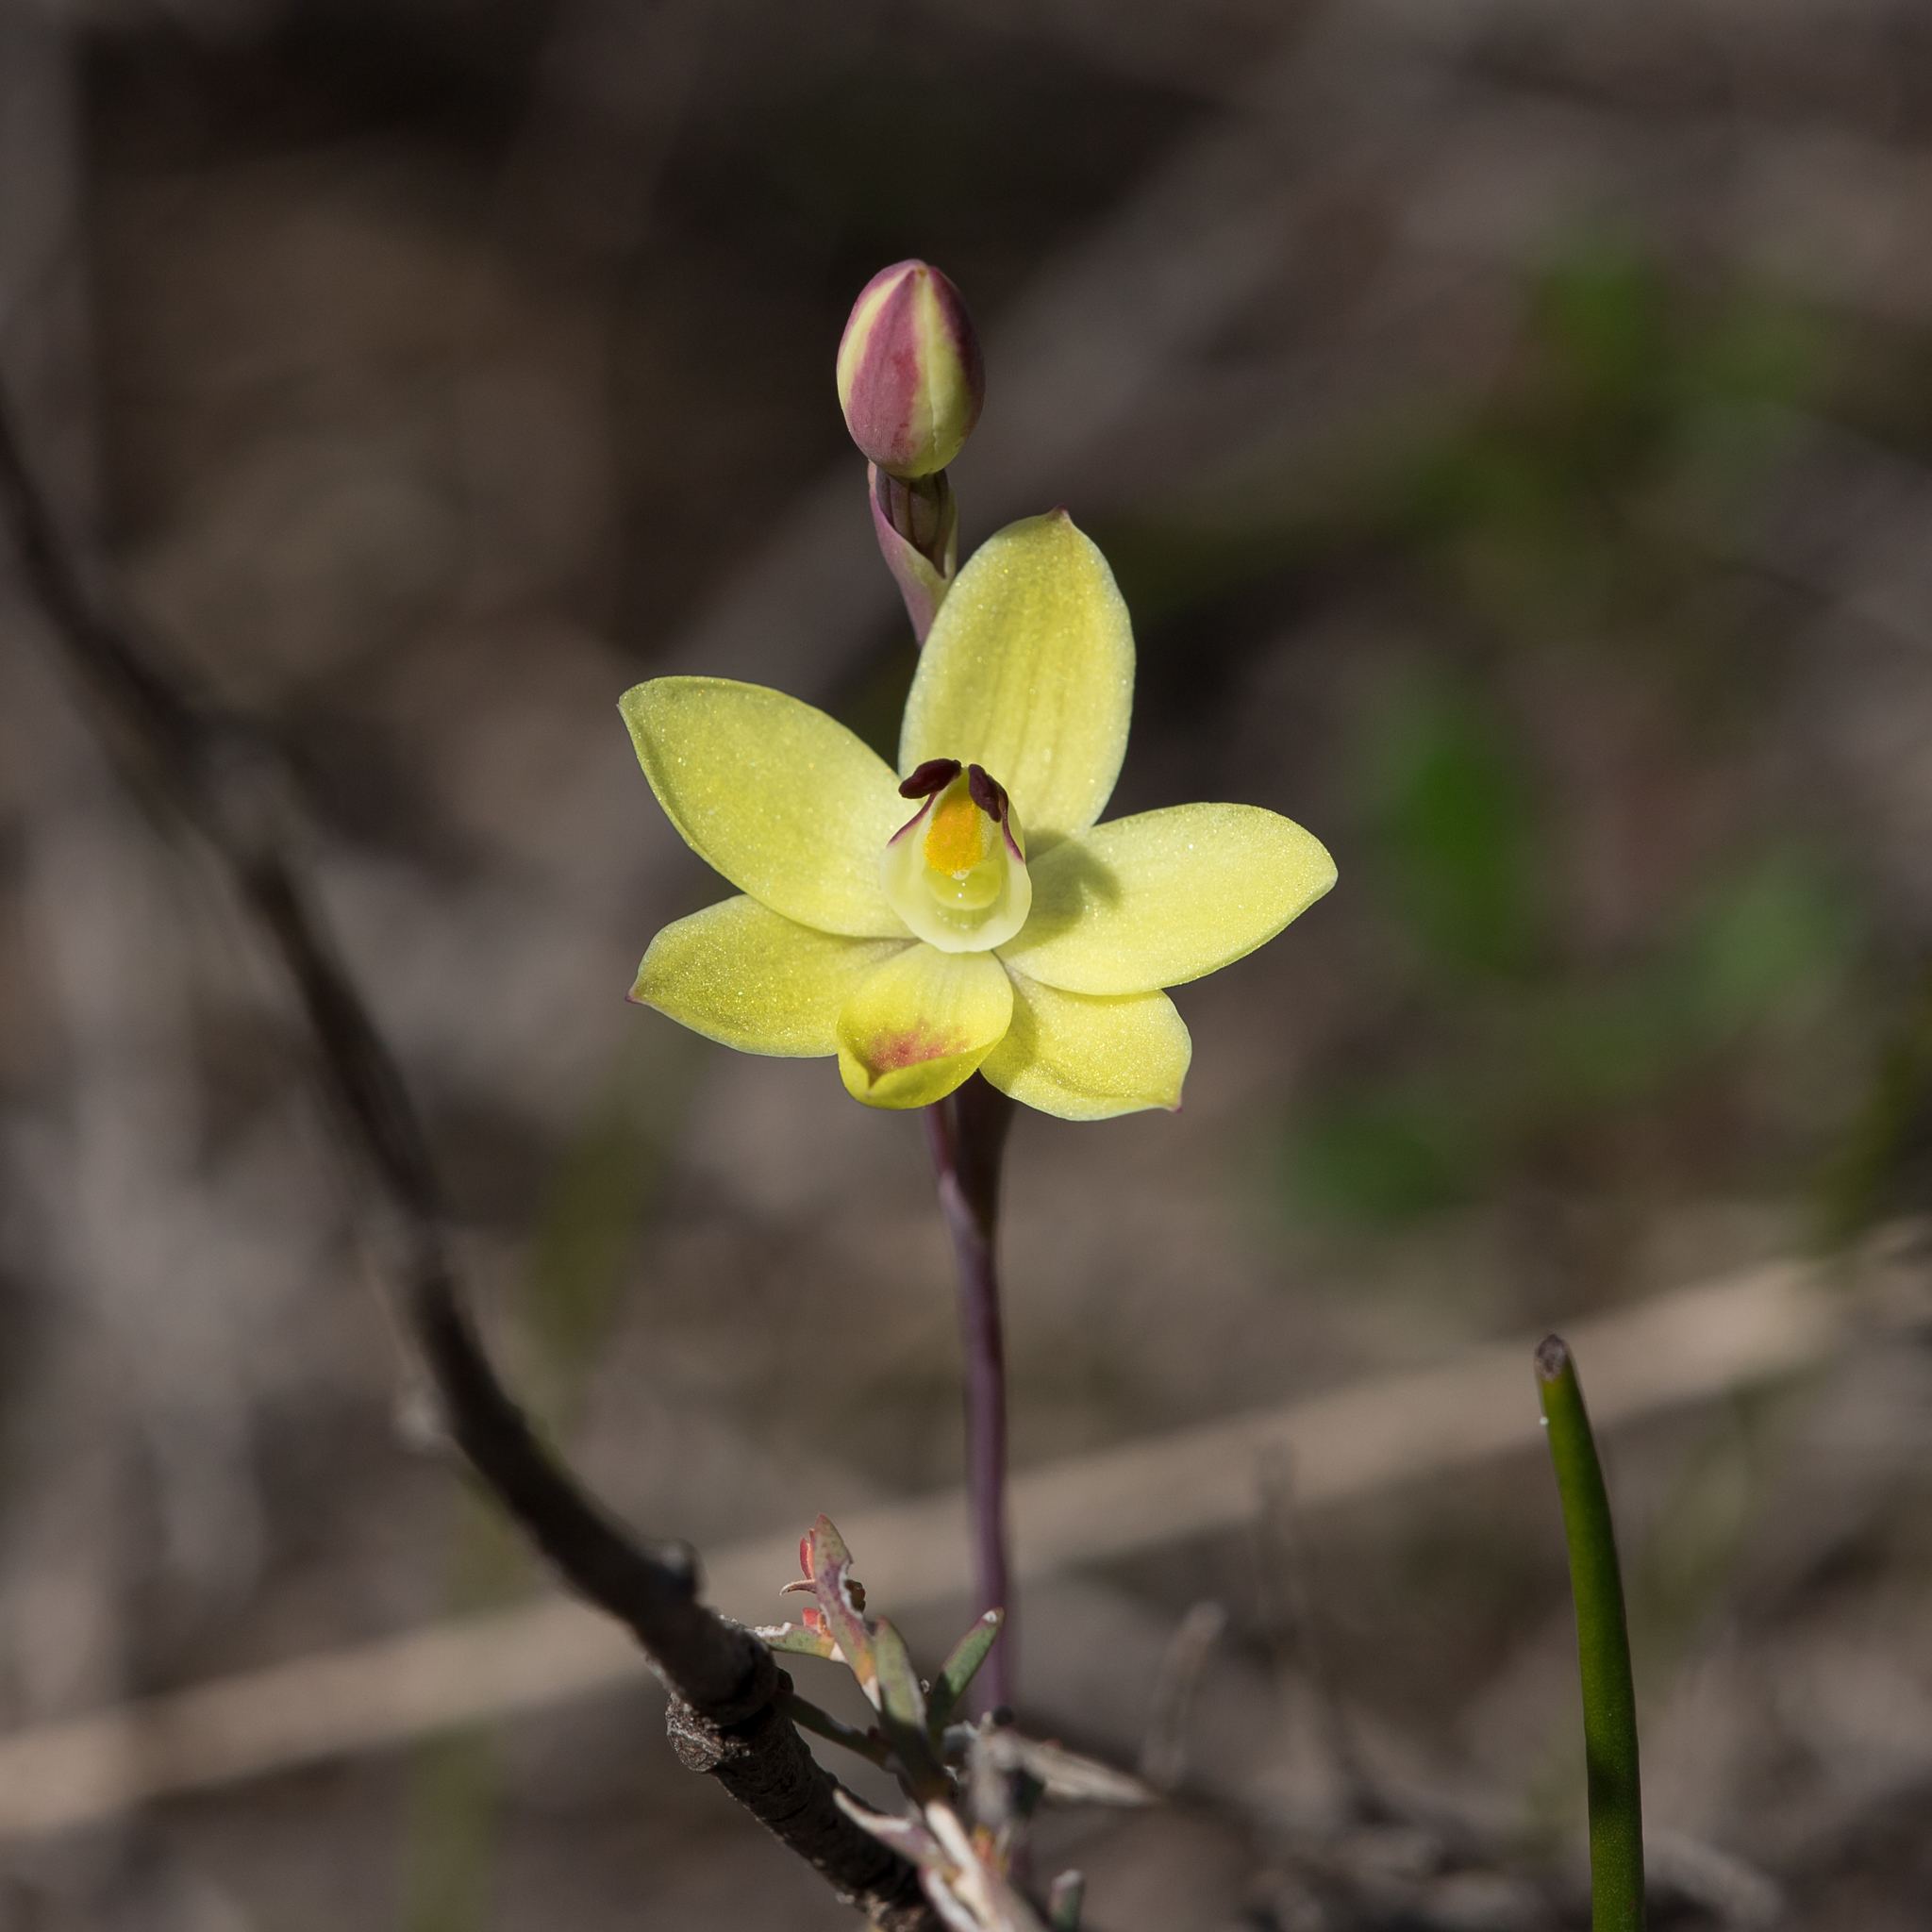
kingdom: Plantae
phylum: Tracheophyta
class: Liliopsida
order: Asparagales
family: Orchidaceae
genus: Thelymitra
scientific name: Thelymitra antennifera
